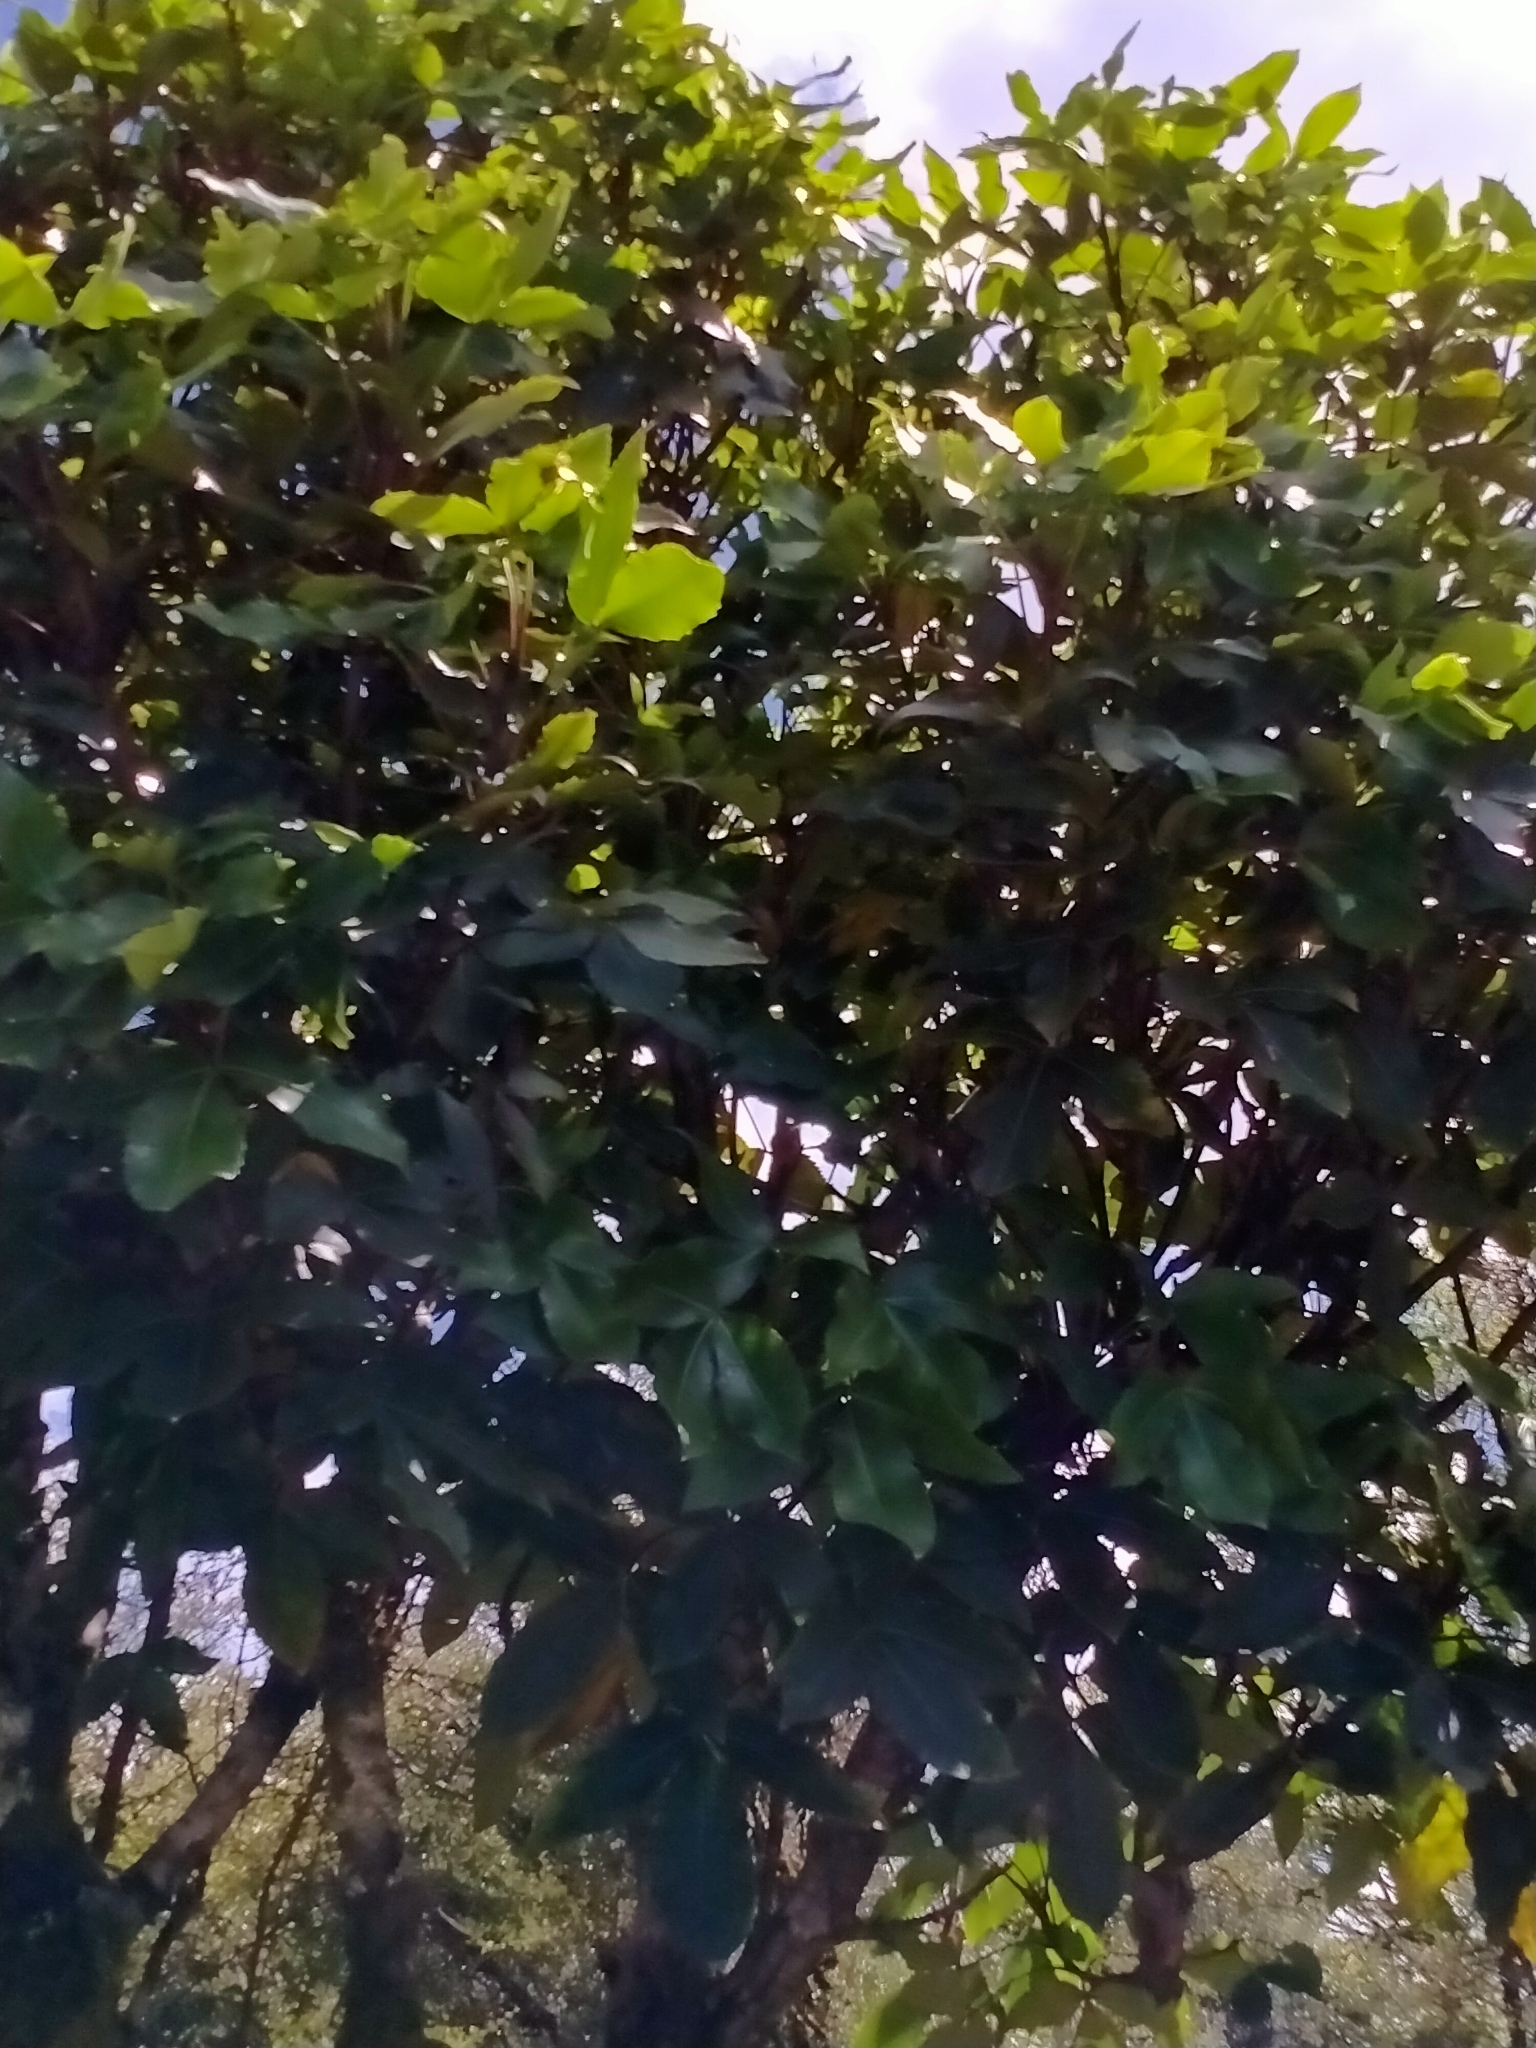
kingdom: Plantae
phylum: Tracheophyta
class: Magnoliopsida
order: Apiales
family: Araliaceae
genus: Neopanax
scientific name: Neopanax colensoi
